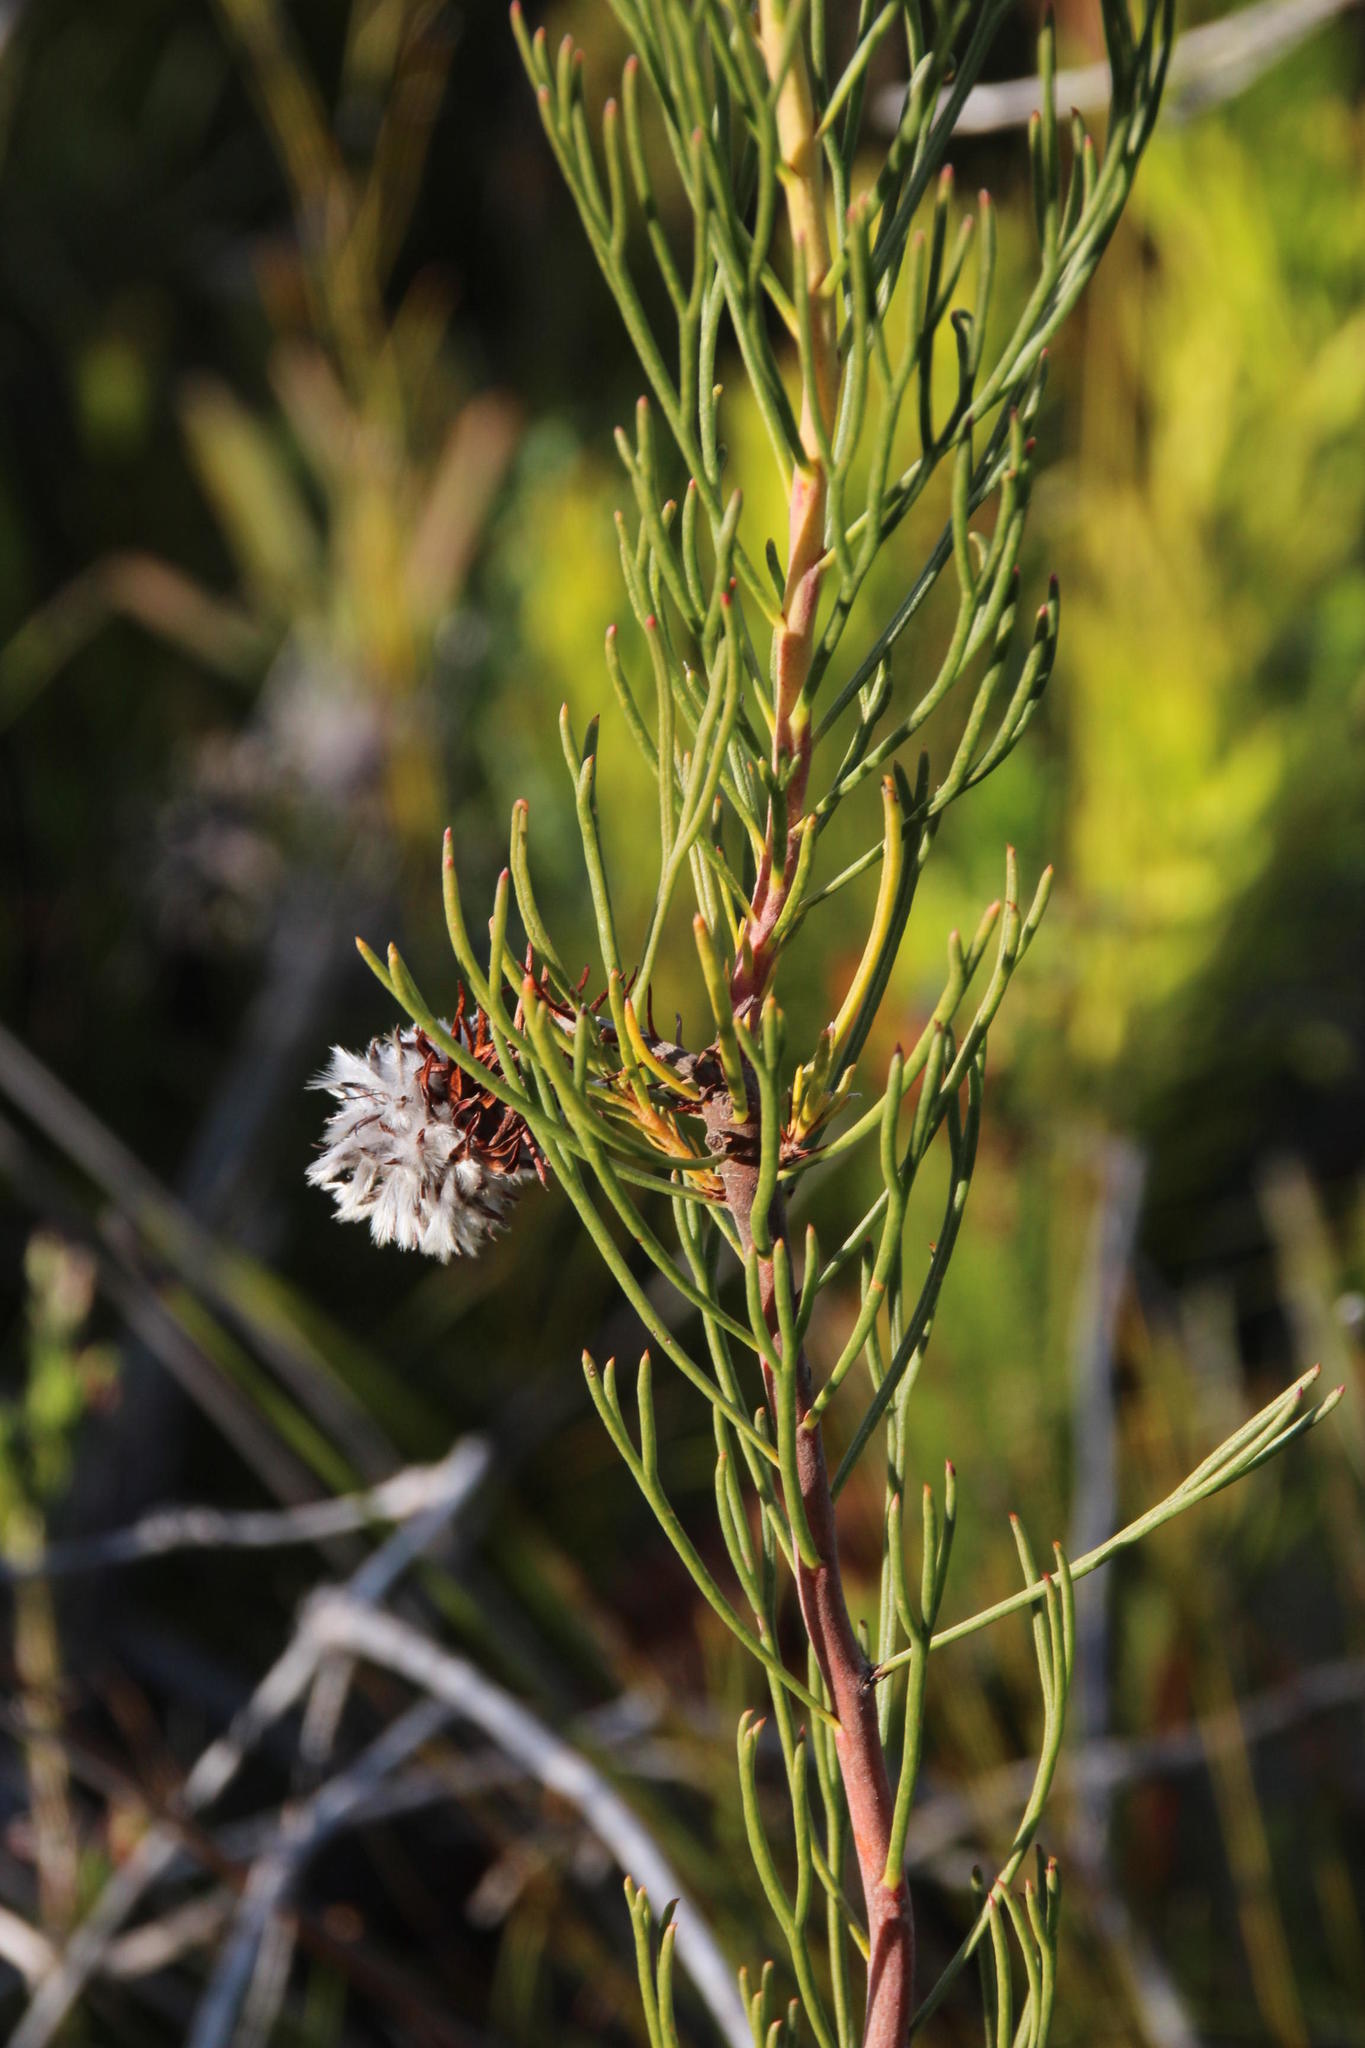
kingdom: Plantae
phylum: Tracheophyta
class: Magnoliopsida
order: Proteales
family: Proteaceae
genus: Serruria
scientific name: Serruria phylicoides
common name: Bearded spiderhead
